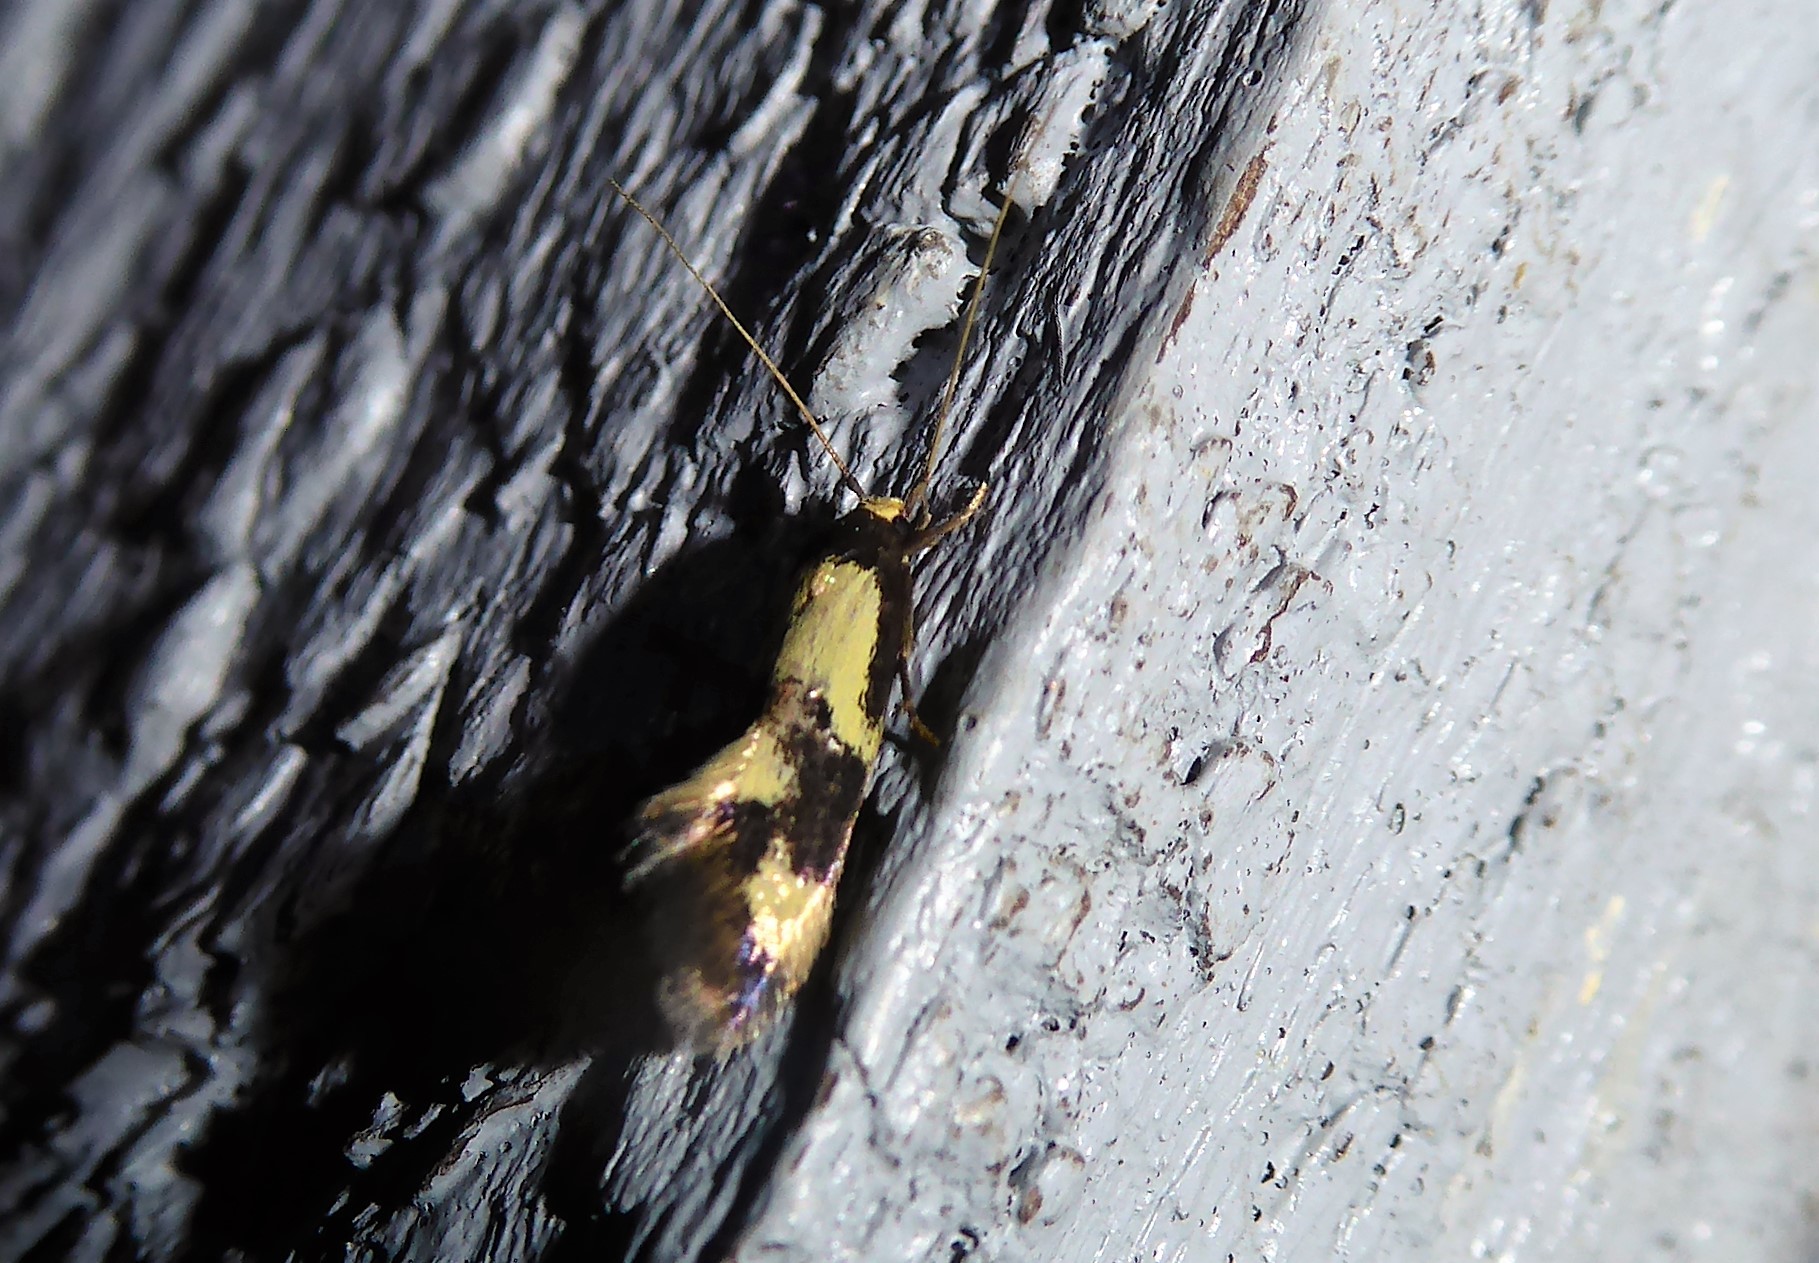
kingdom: Animalia
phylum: Arthropoda
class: Insecta
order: Lepidoptera
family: Tineidae
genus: Opogona
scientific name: Opogona comptella
